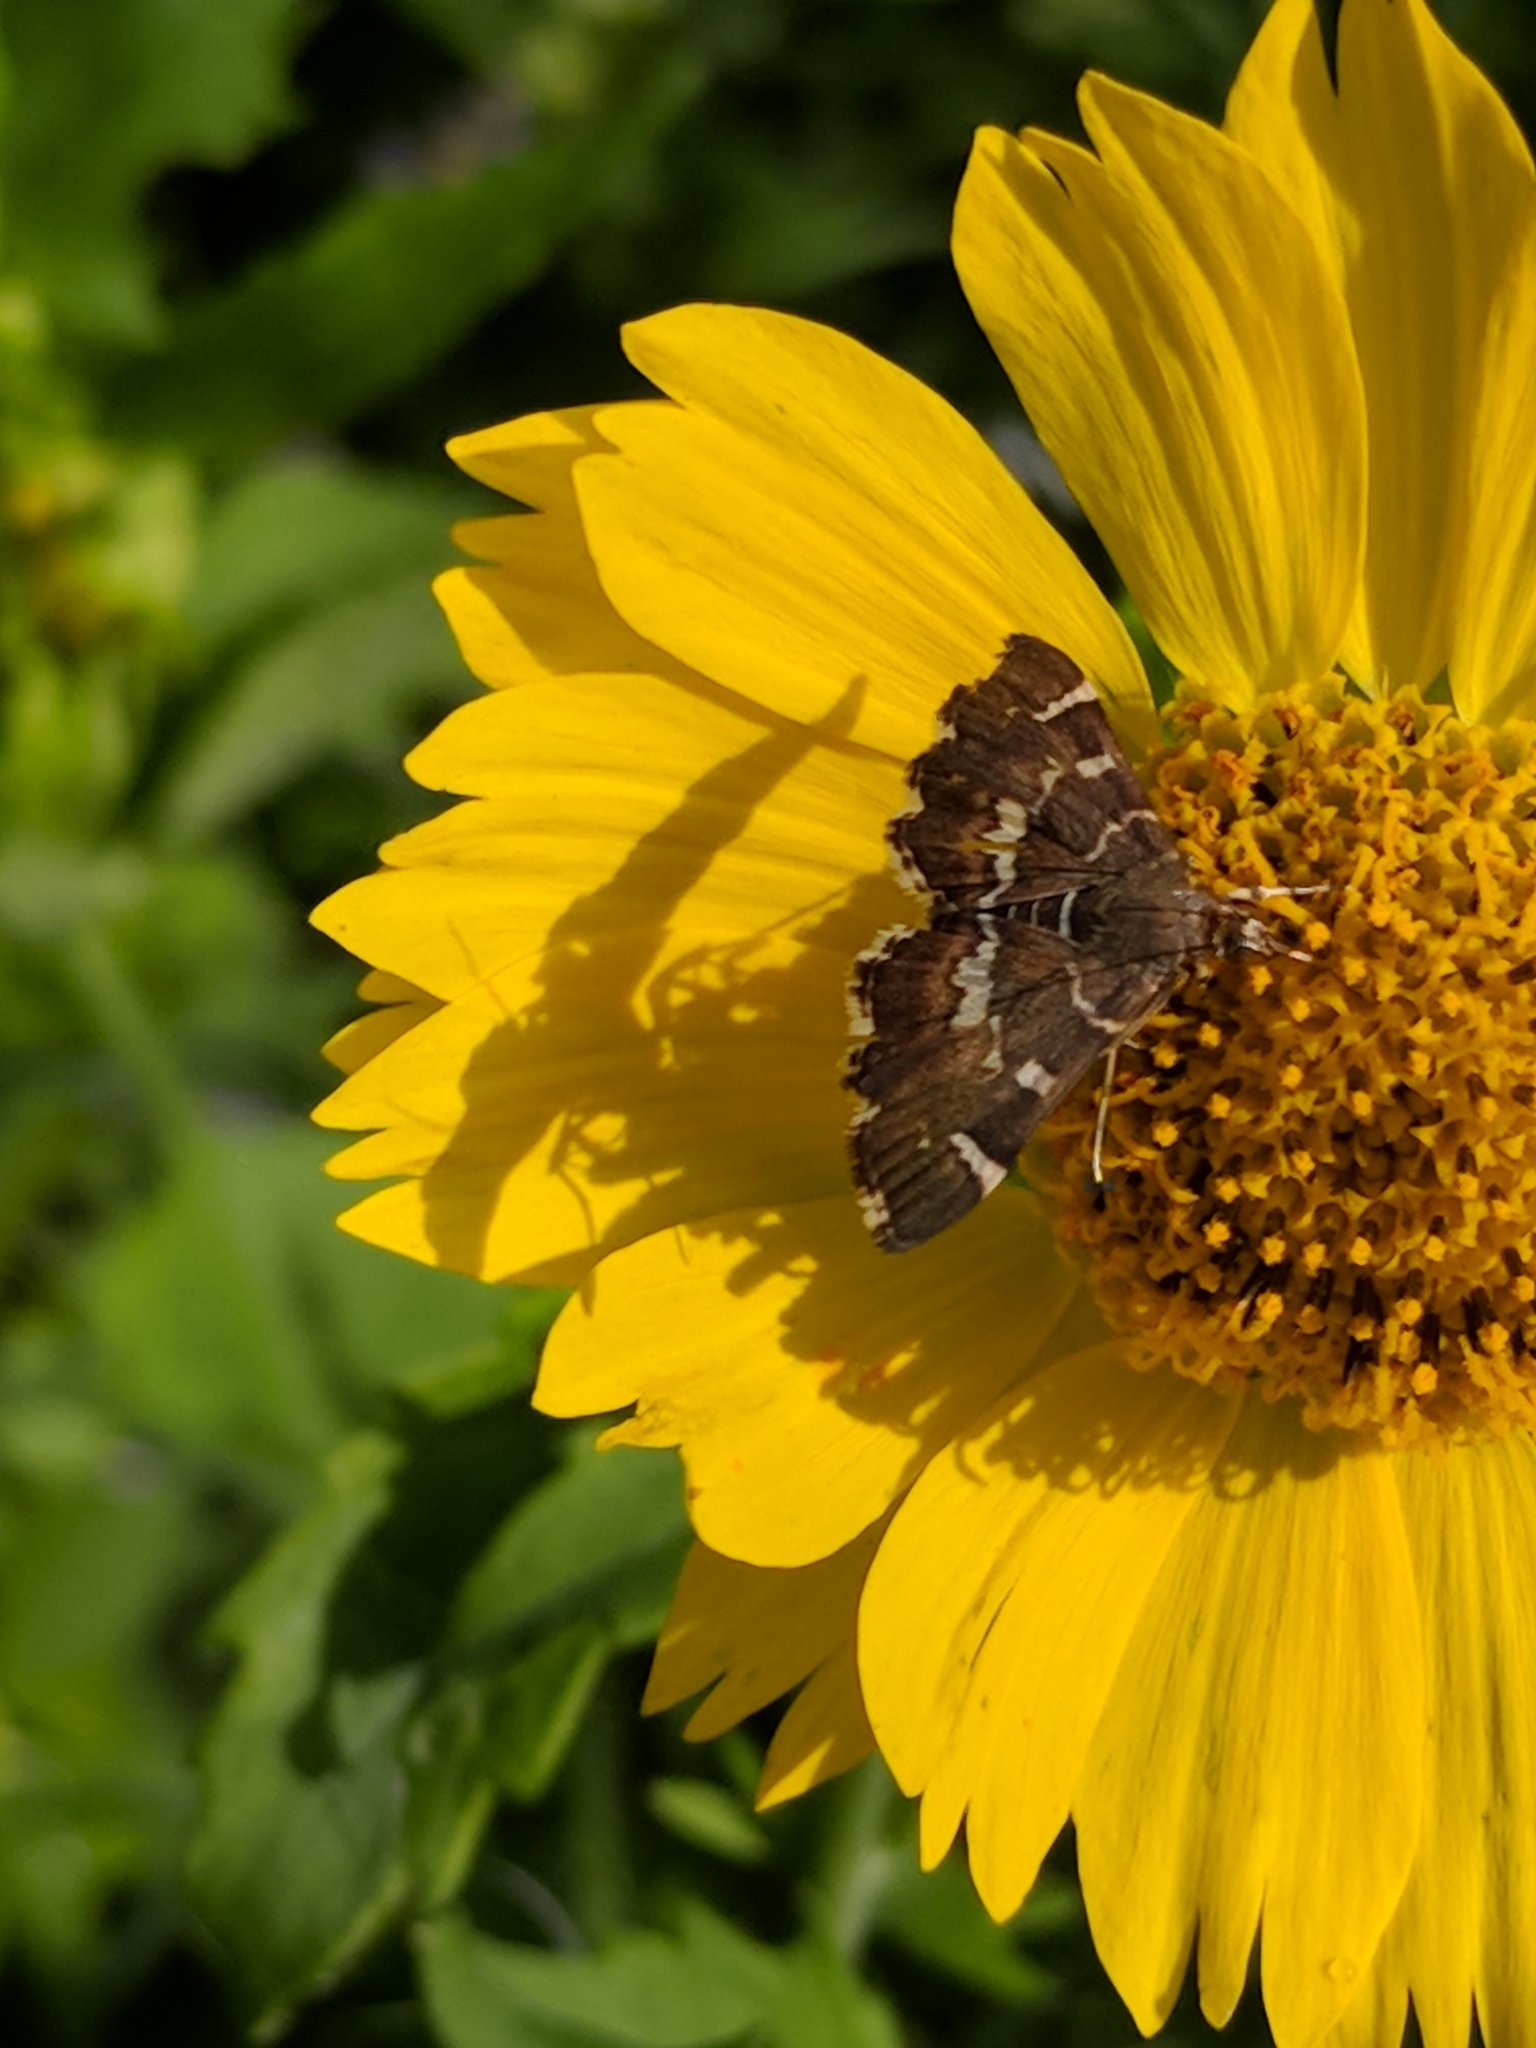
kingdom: Animalia
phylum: Arthropoda
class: Insecta
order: Lepidoptera
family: Crambidae
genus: Hymenia
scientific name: Hymenia perspectalis
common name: Spotted beet webworm
